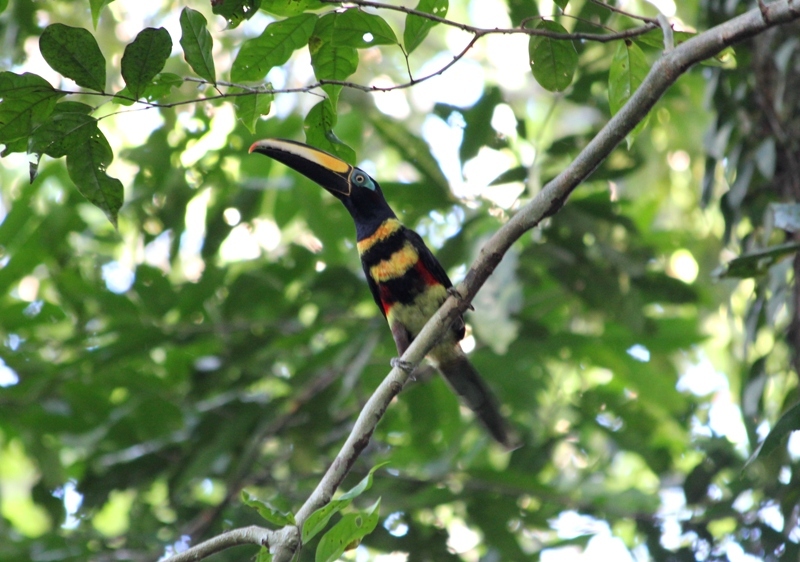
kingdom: Animalia
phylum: Chordata
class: Aves
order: Piciformes
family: Ramphastidae
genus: Pteroglossus
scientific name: Pteroglossus pluricinctus
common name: Many-banded aracari
